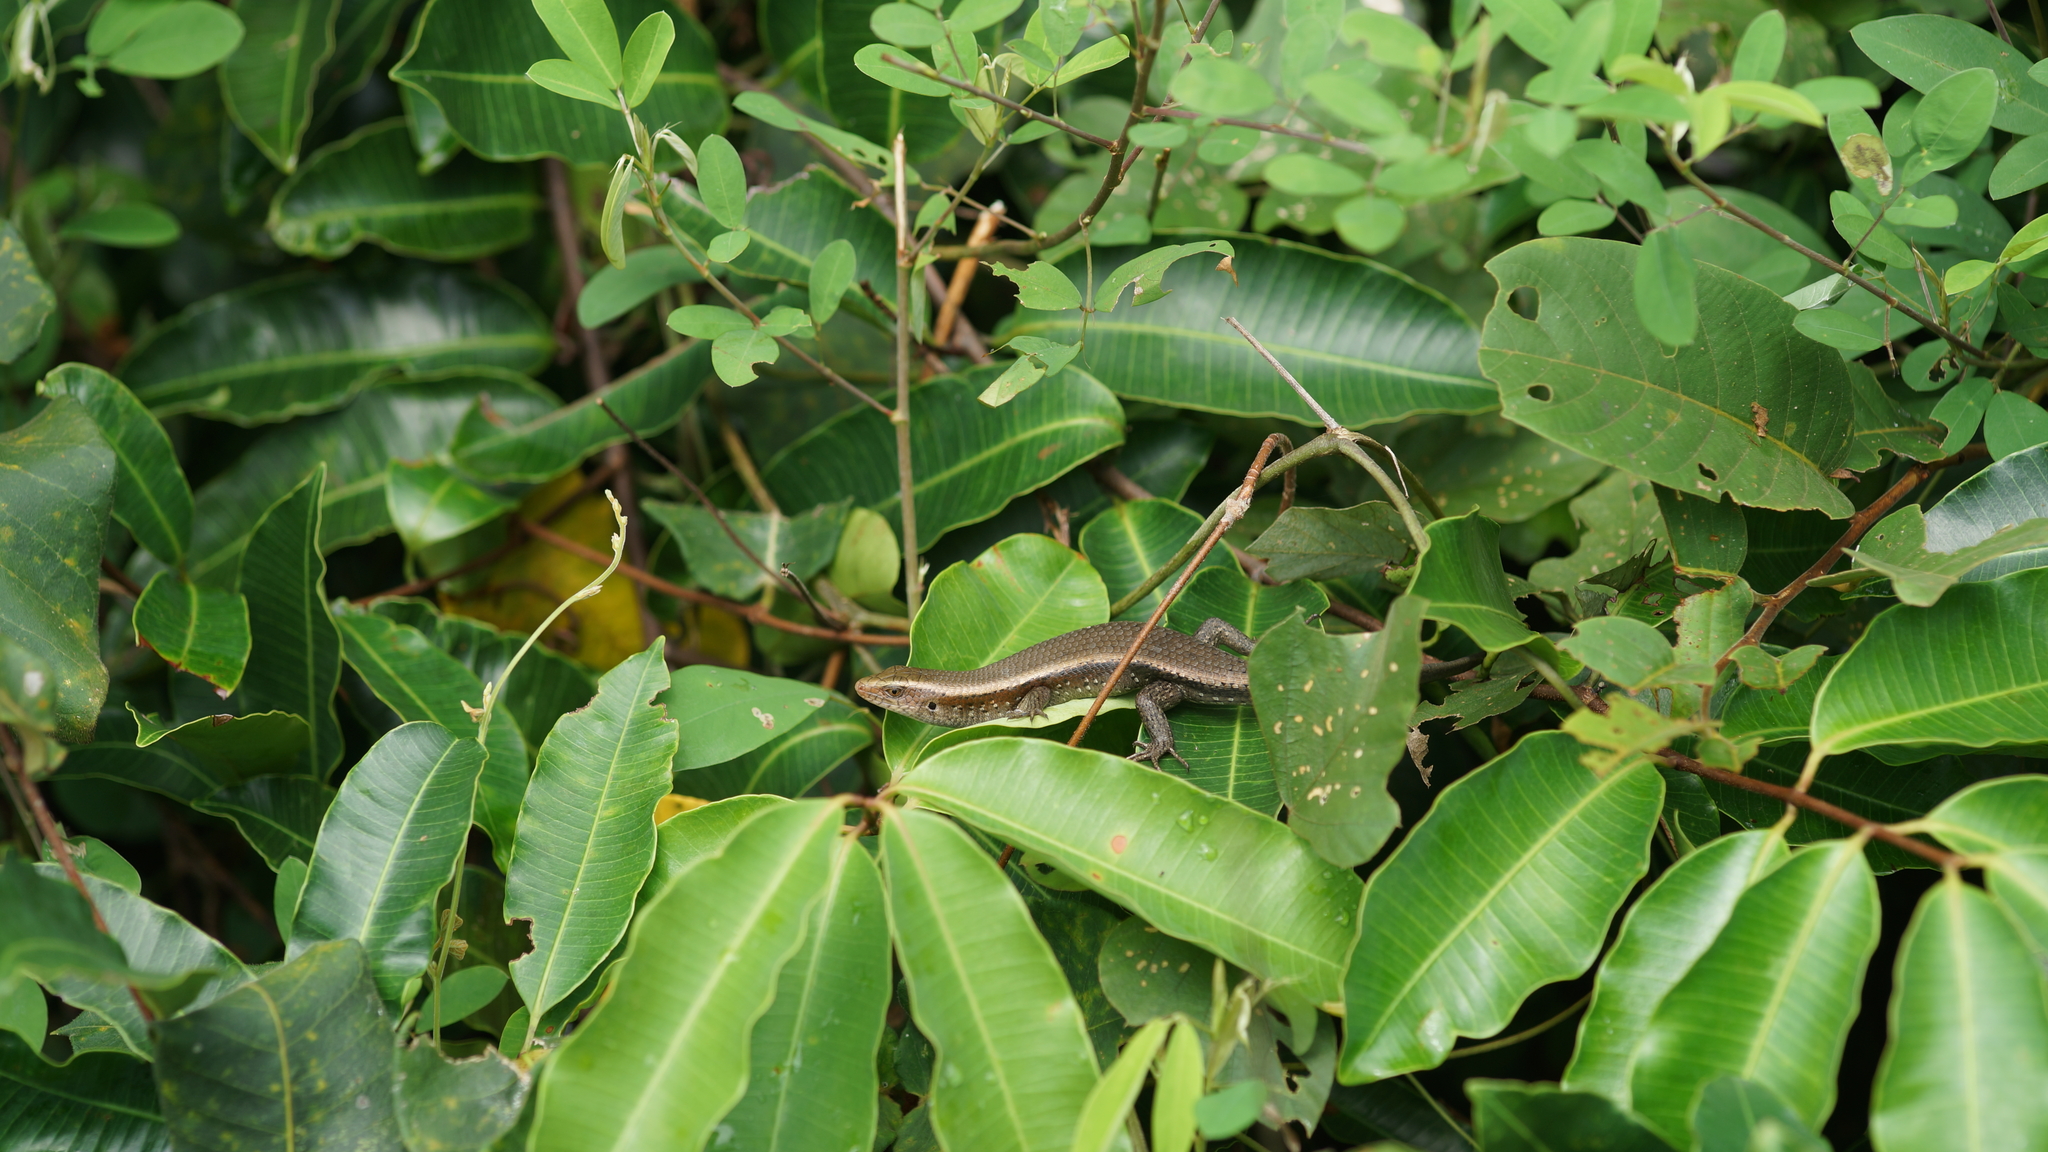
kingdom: Animalia
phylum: Chordata
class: Squamata
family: Scincidae
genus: Eutropis
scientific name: Eutropis multifasciata
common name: Common mabuya
